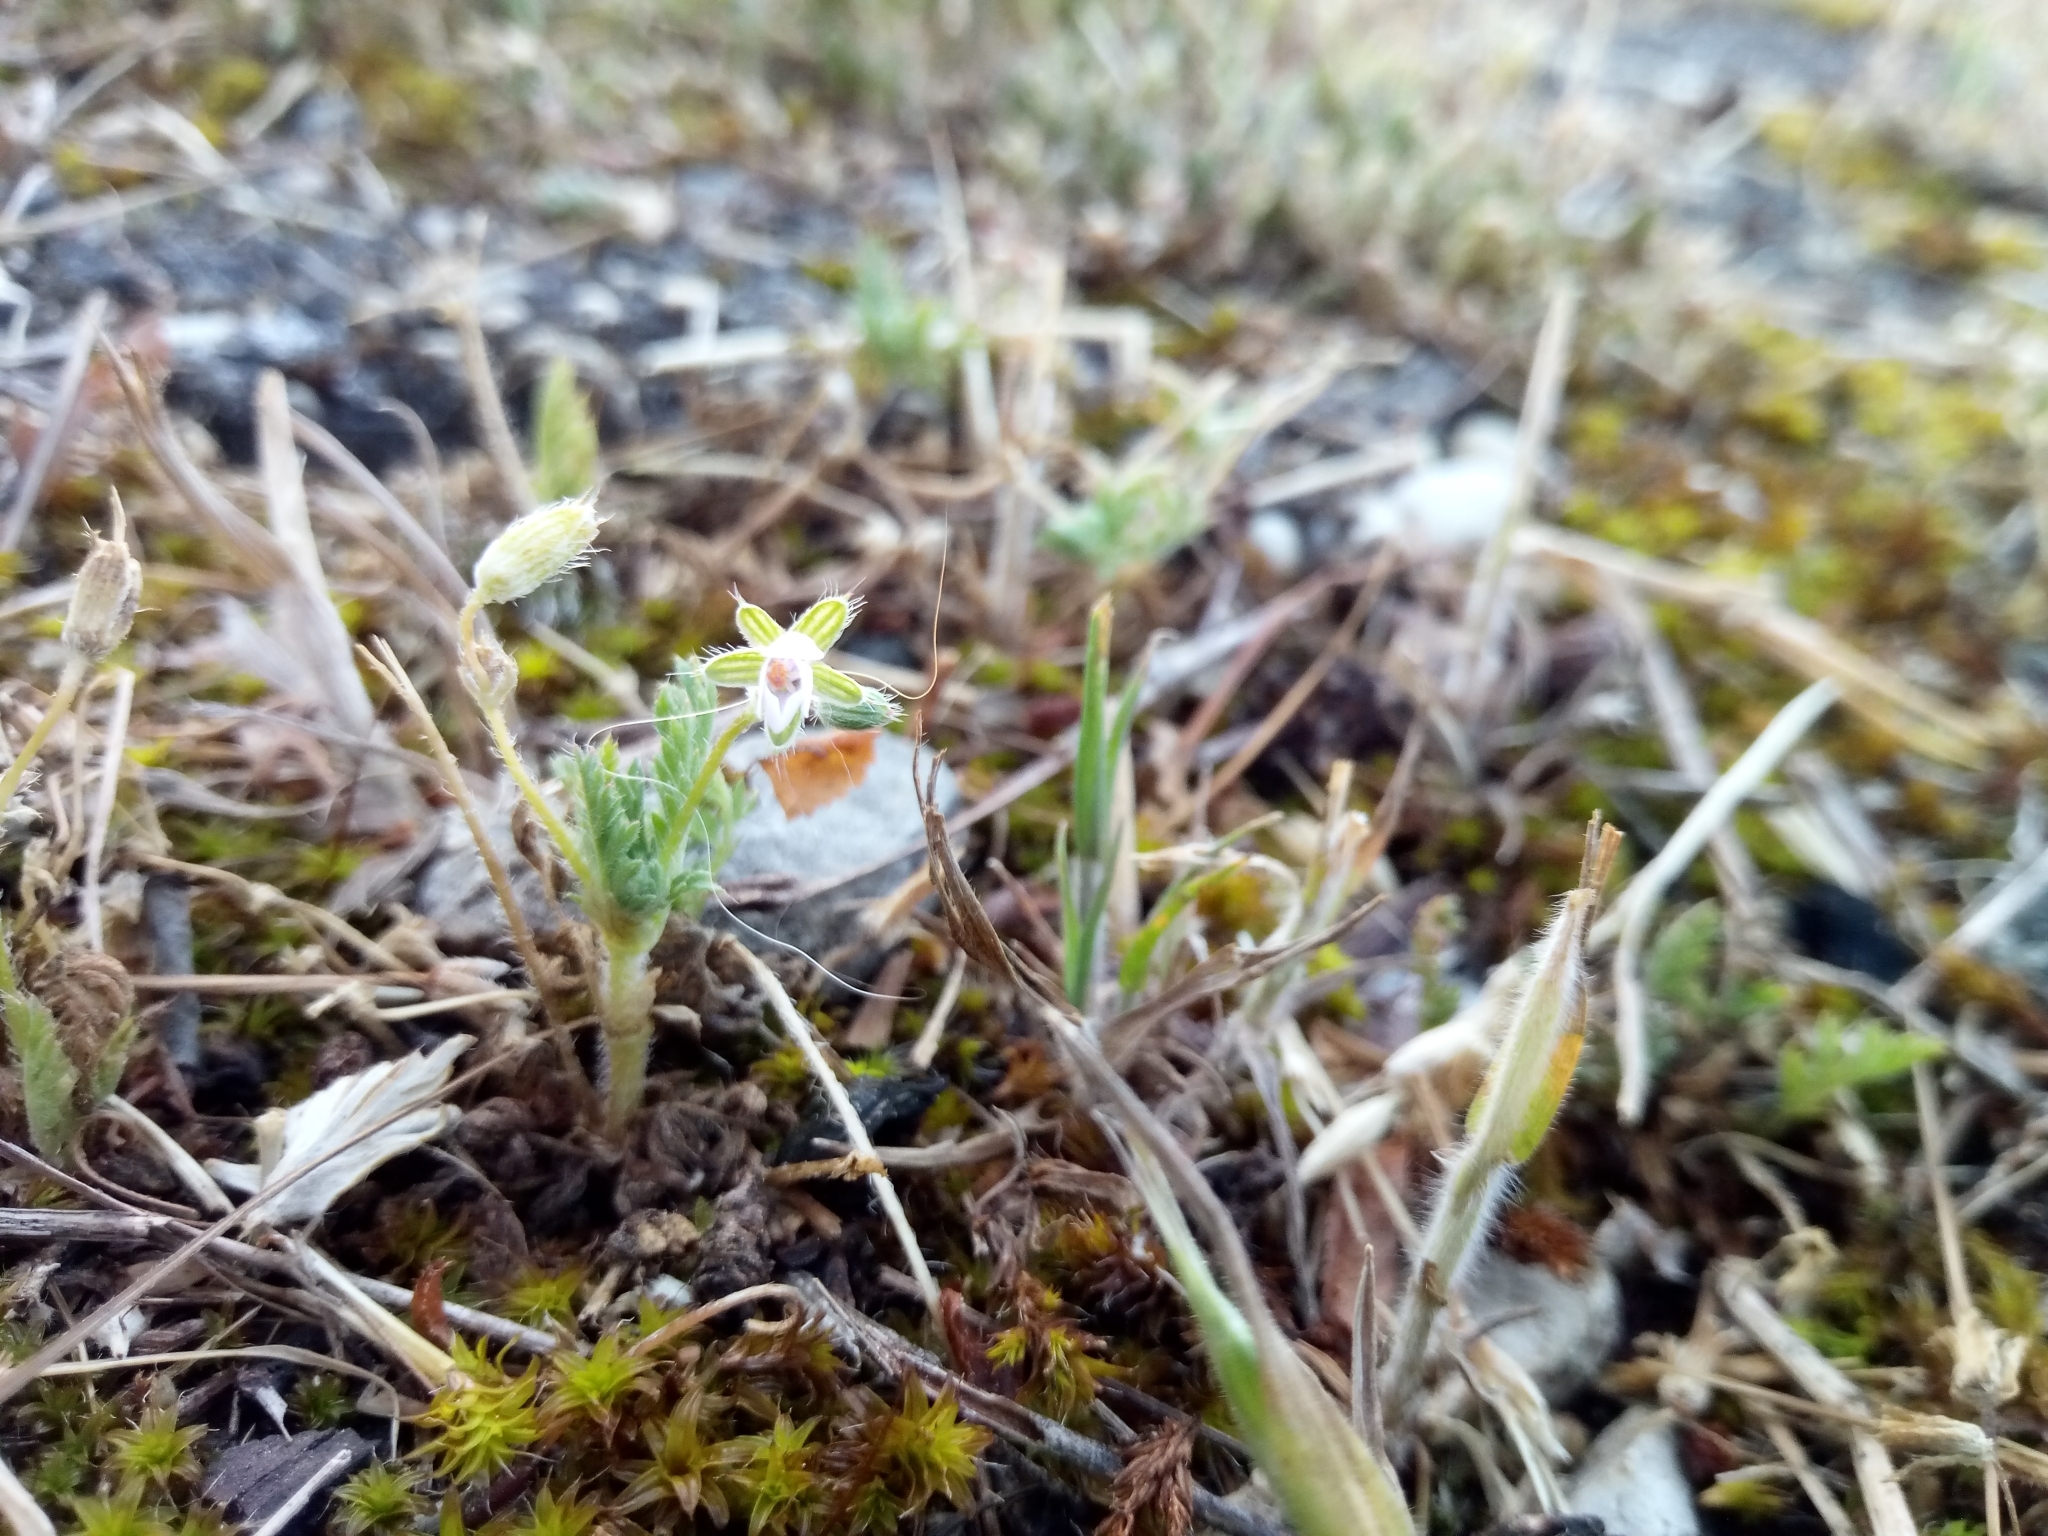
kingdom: Plantae
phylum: Tracheophyta
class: Magnoliopsida
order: Geraniales
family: Geraniaceae
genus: Erodium
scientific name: Erodium cicutarium
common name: Common stork's-bill
